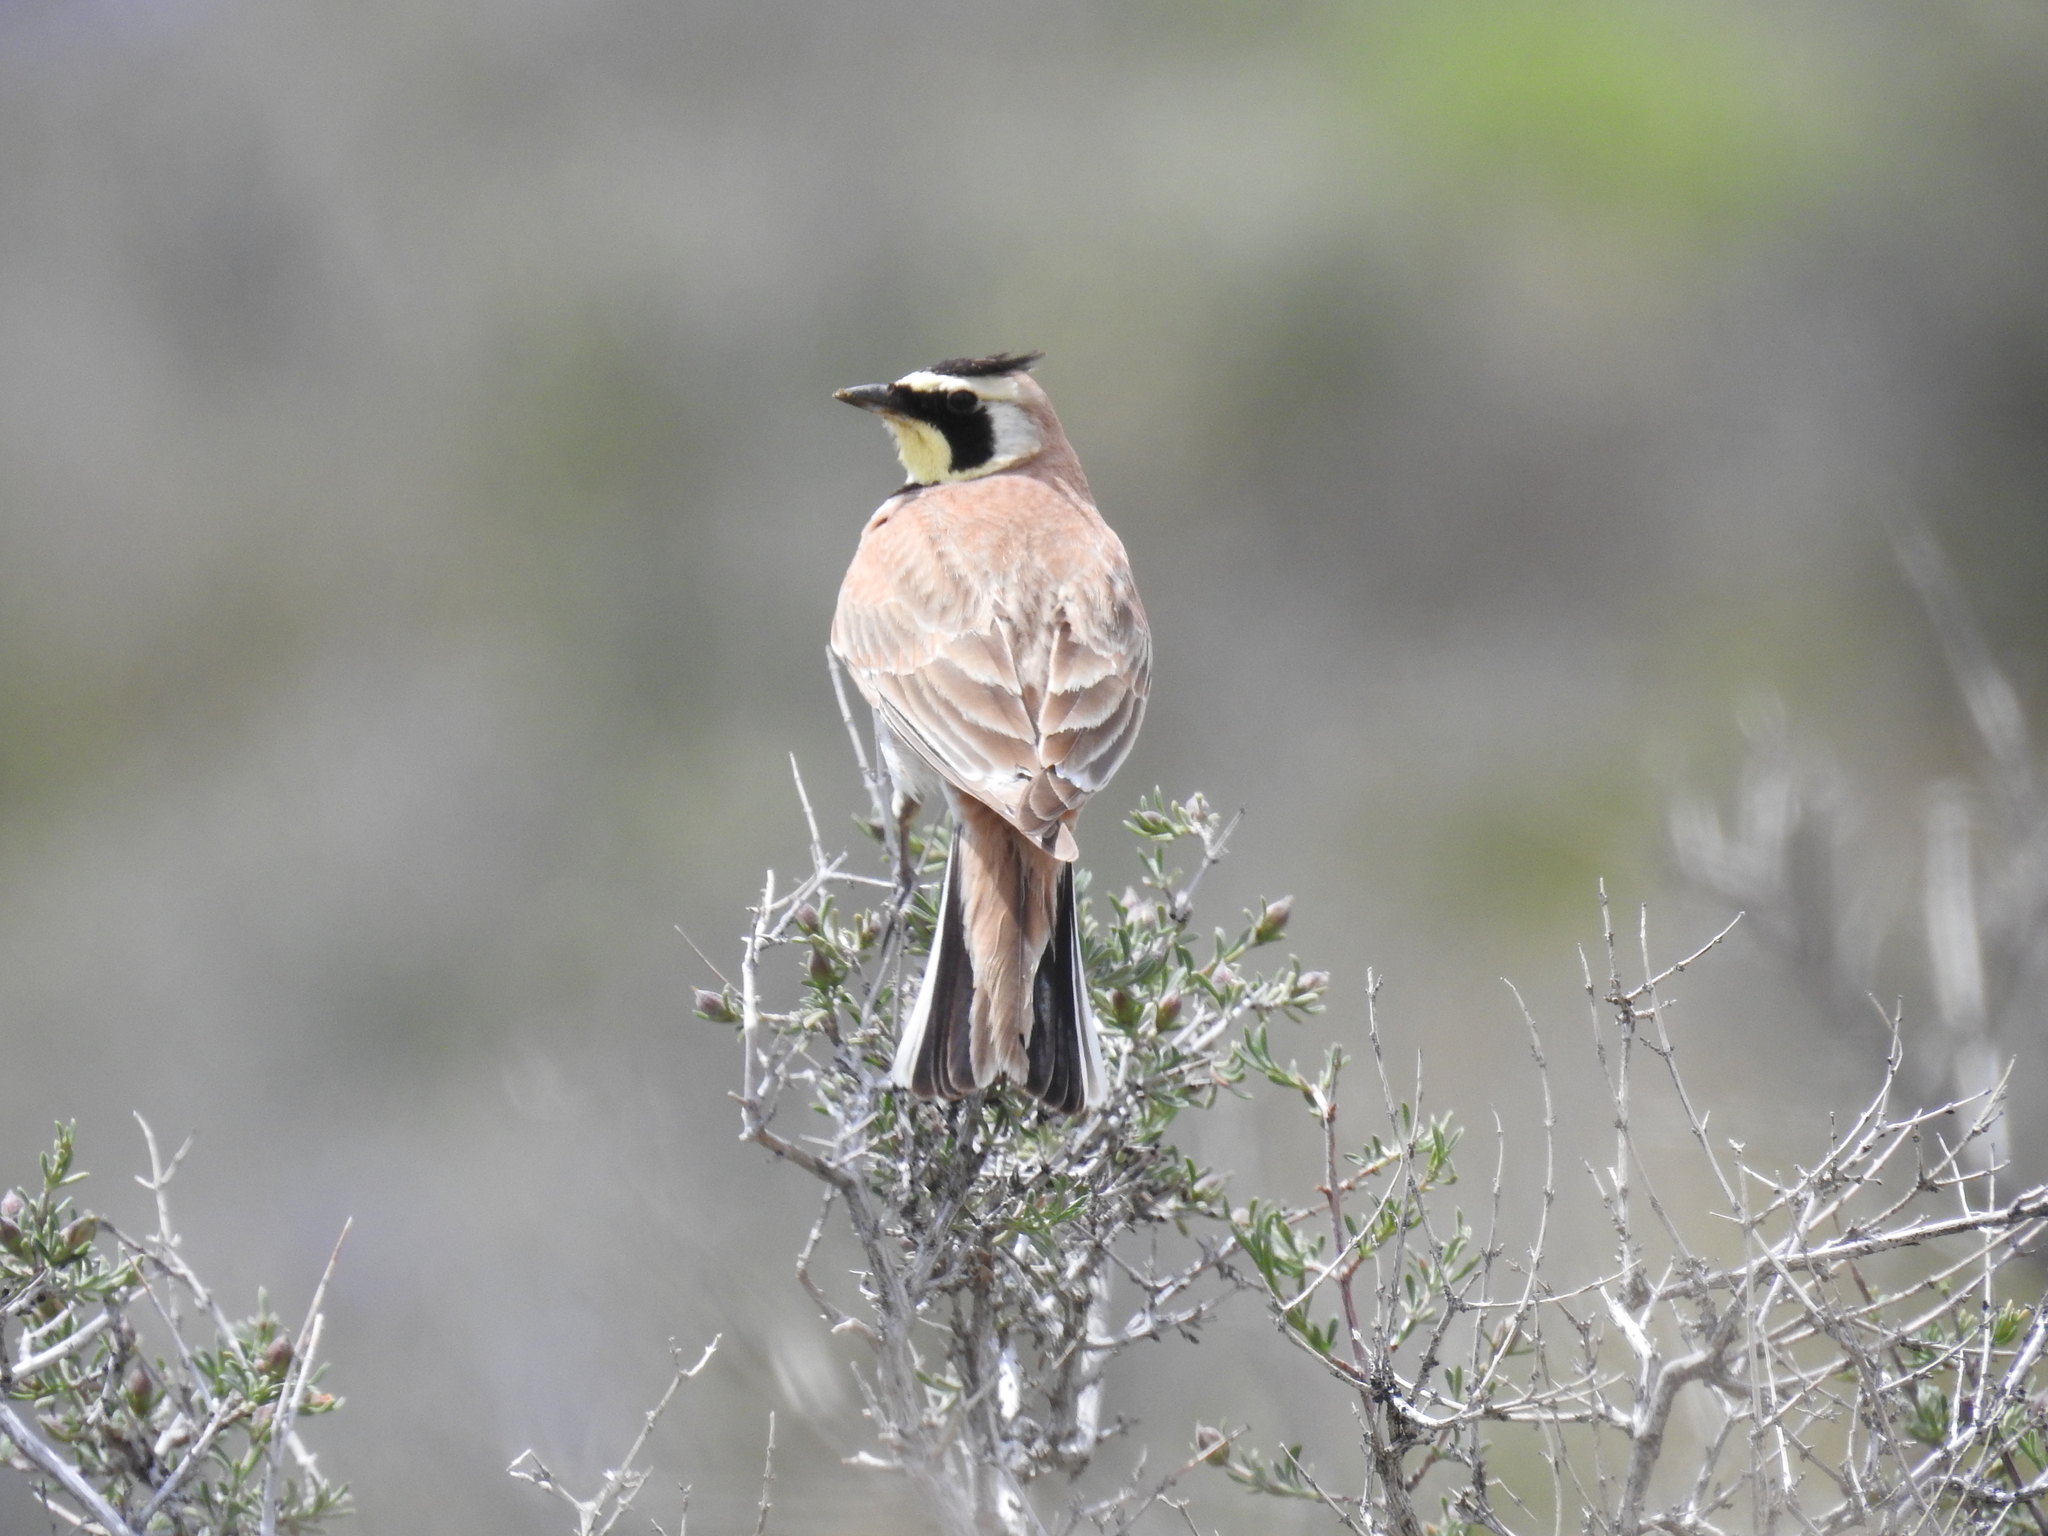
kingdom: Animalia
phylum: Chordata
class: Aves
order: Passeriformes
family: Alaudidae
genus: Eremophila
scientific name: Eremophila alpestris
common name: Horned lark
